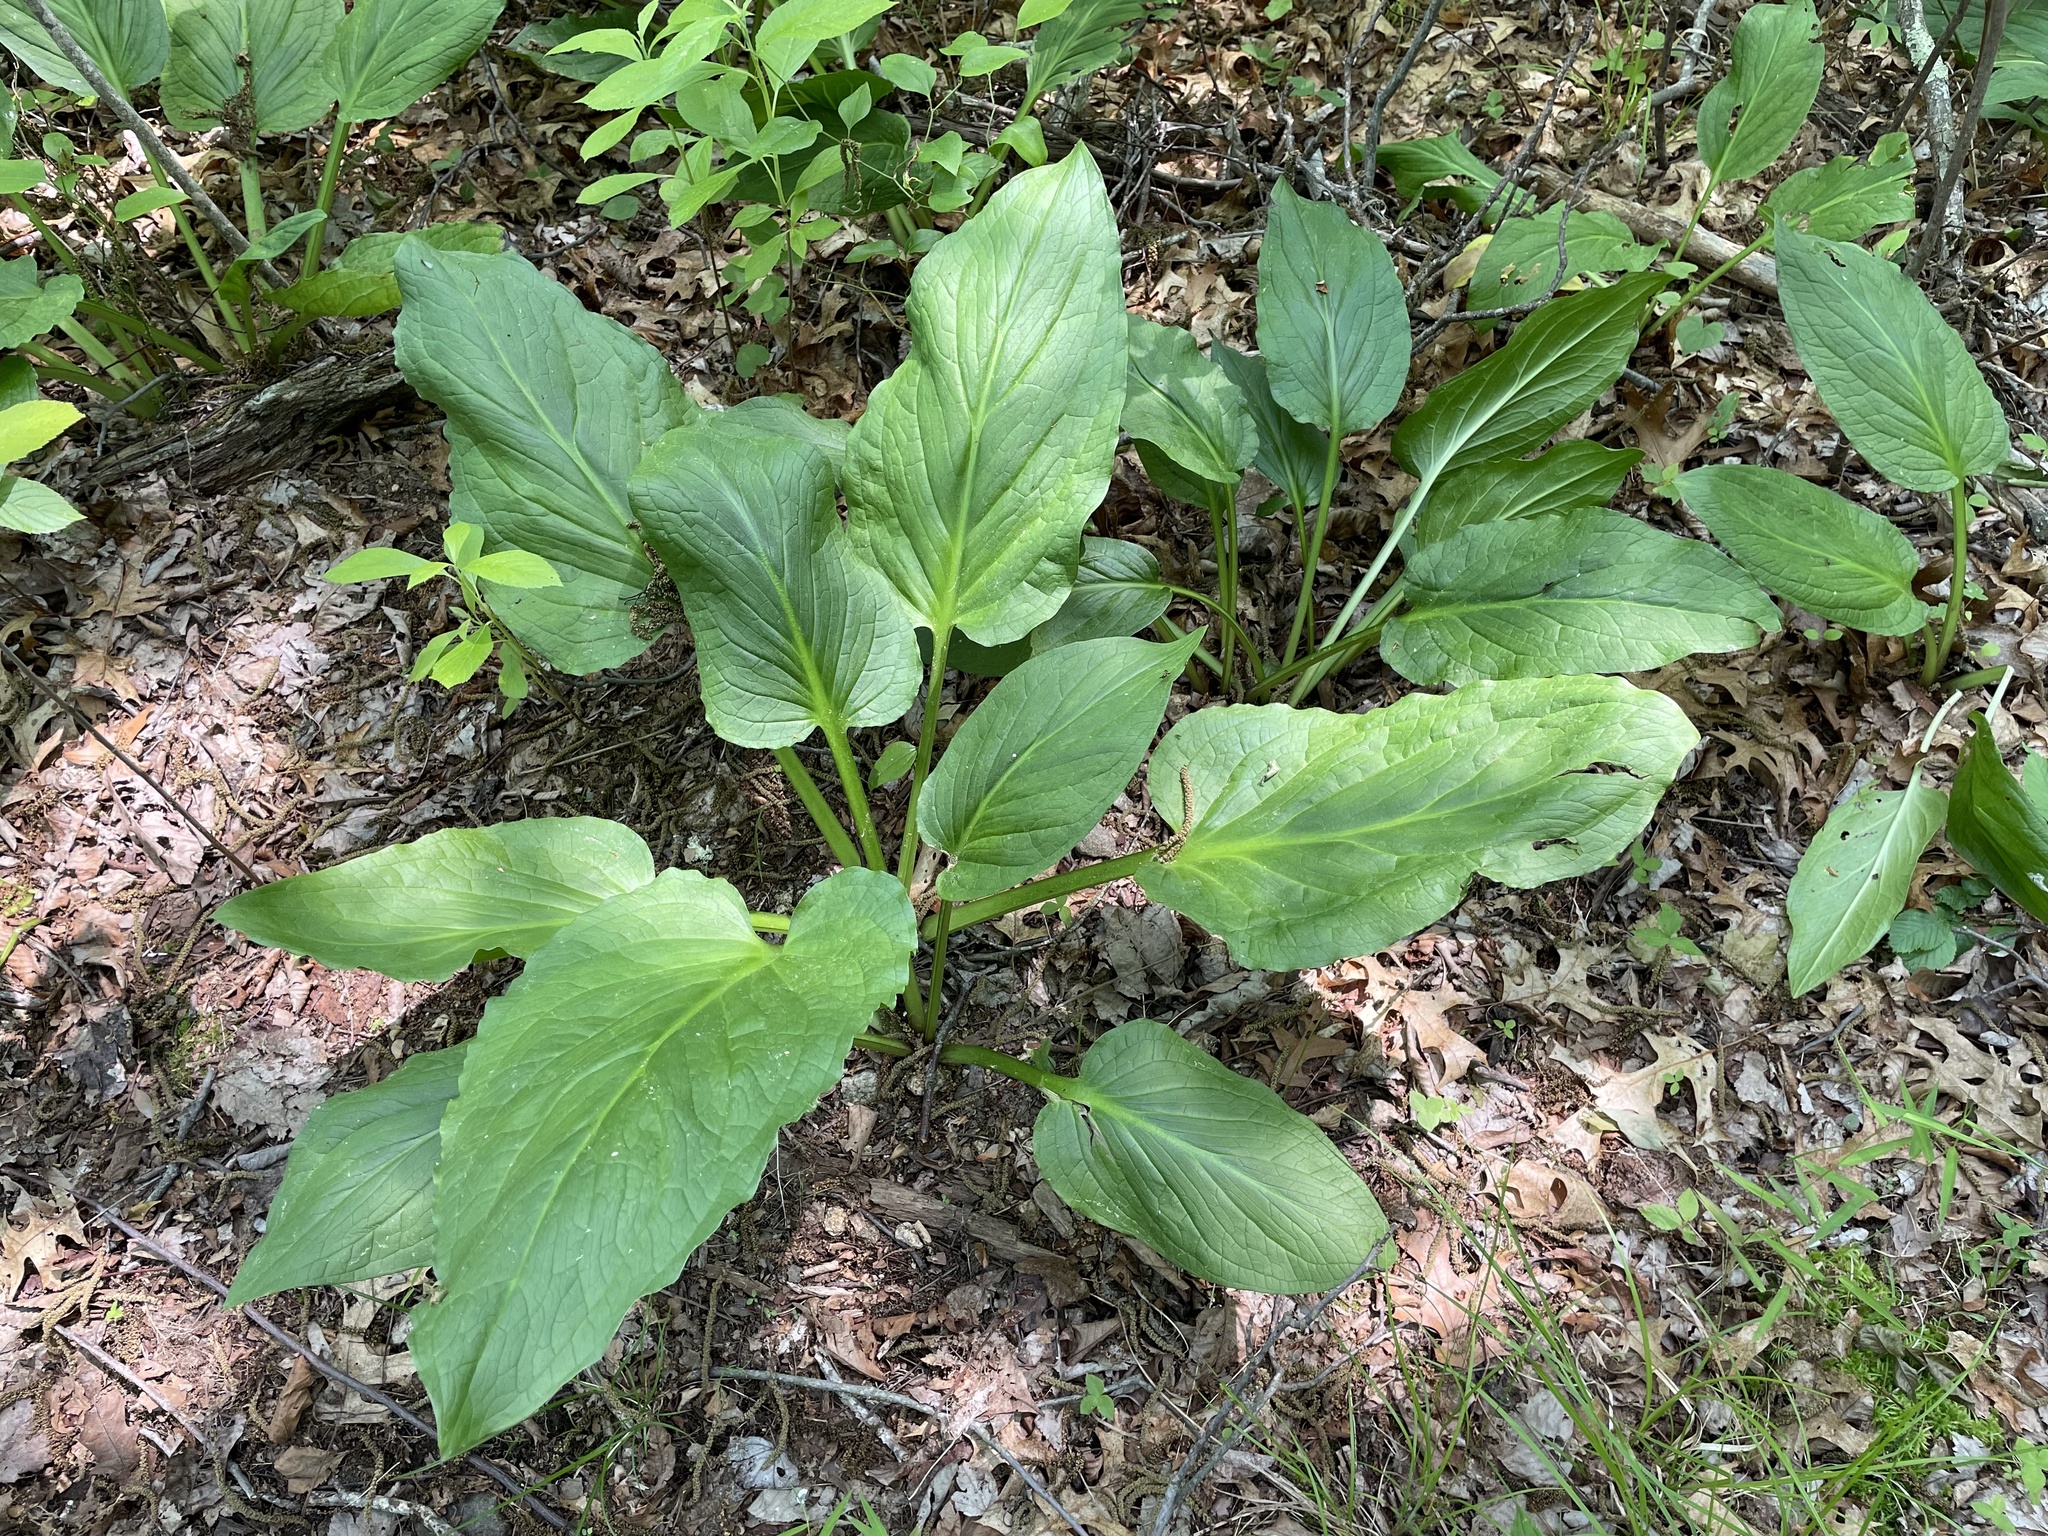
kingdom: Plantae
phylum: Tracheophyta
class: Liliopsida
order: Alismatales
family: Araceae
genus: Symplocarpus
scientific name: Symplocarpus foetidus
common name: Eastern skunk cabbage
